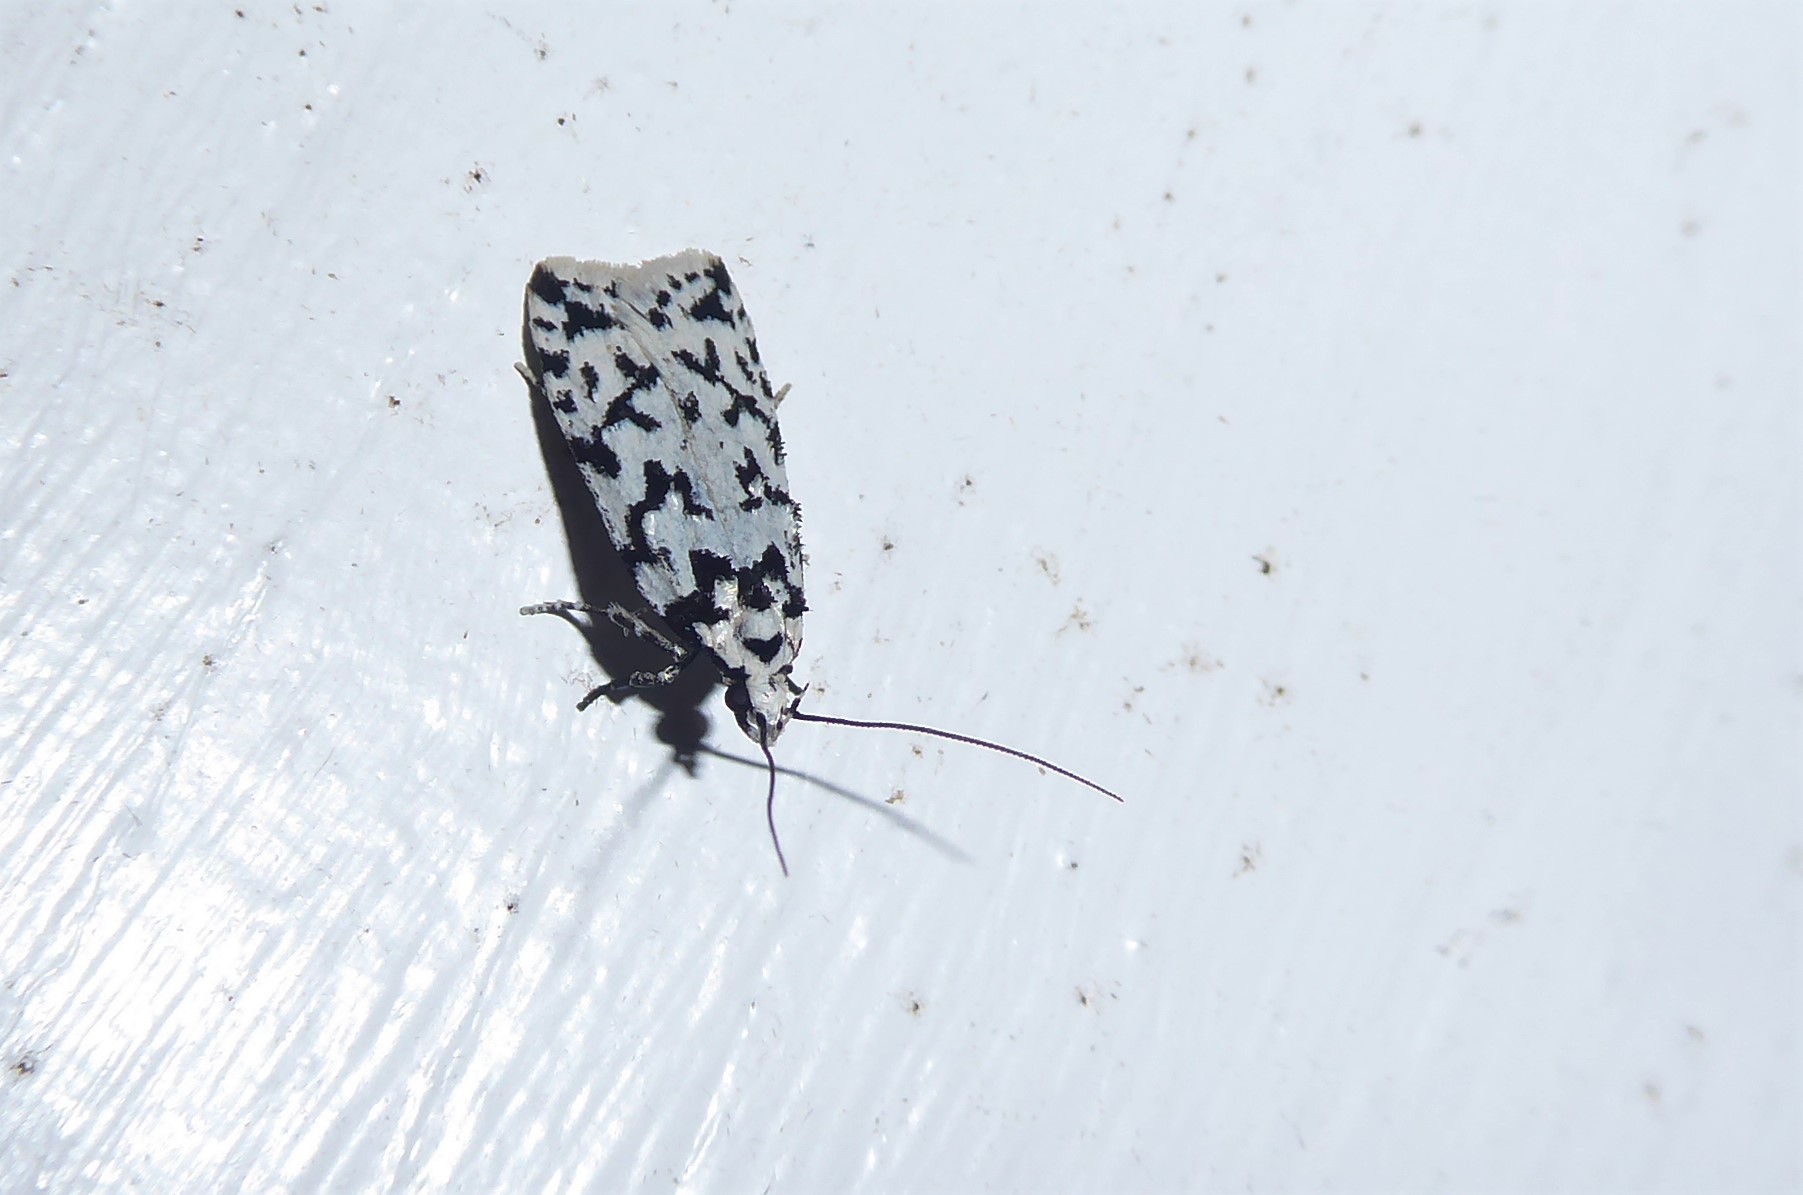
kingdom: Animalia
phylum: Arthropoda
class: Insecta
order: Lepidoptera
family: Oecophoridae
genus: Izatha
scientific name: Izatha katadiktya
